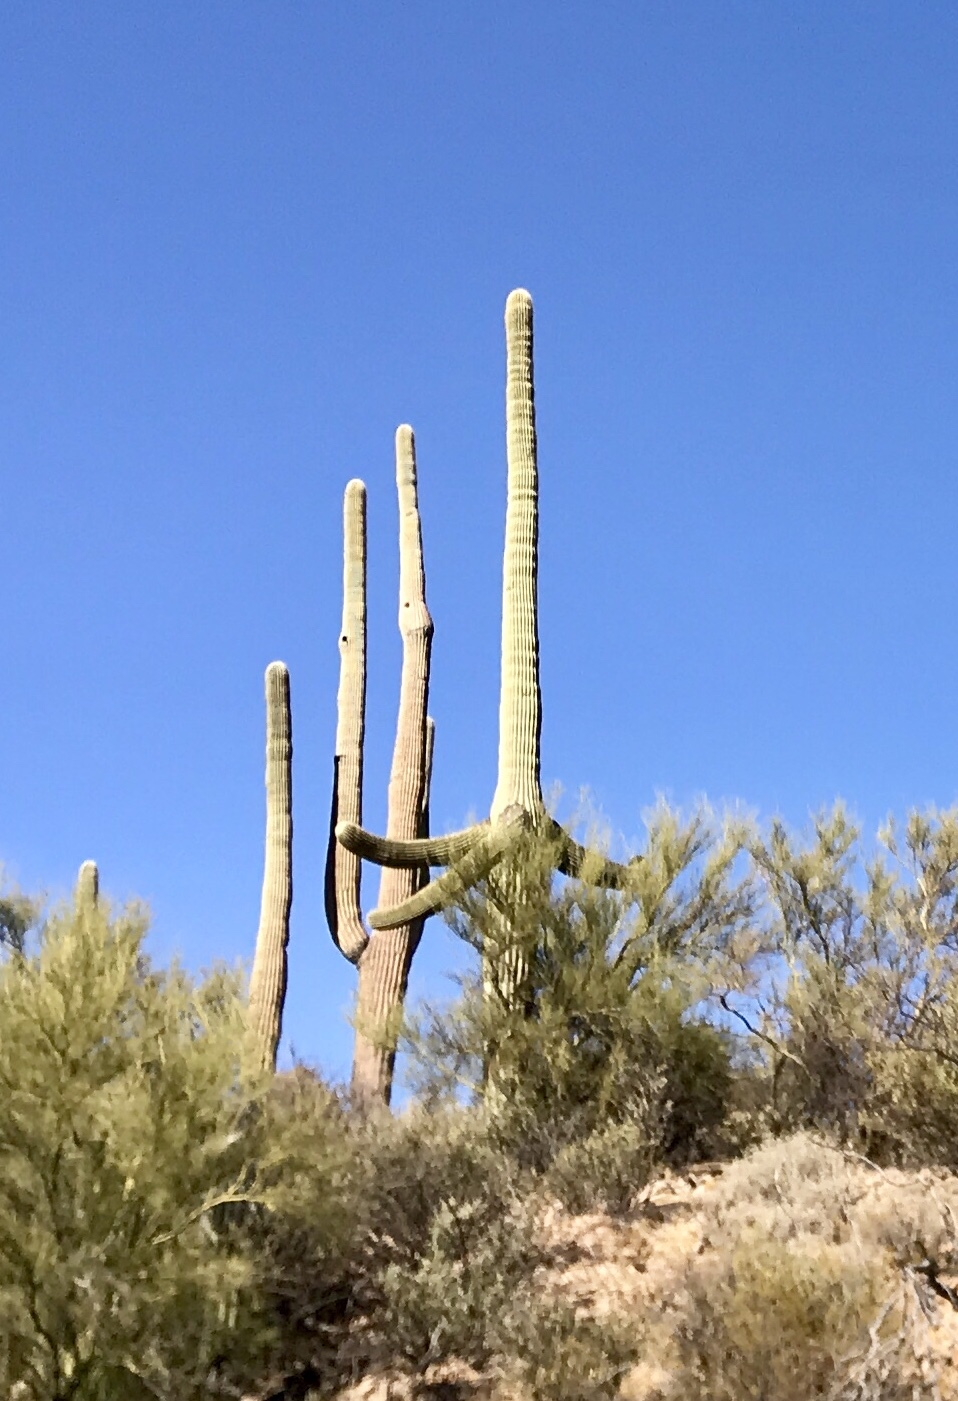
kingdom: Plantae
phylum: Tracheophyta
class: Magnoliopsida
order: Caryophyllales
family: Cactaceae
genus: Carnegiea
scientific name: Carnegiea gigantea
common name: Saguaro
